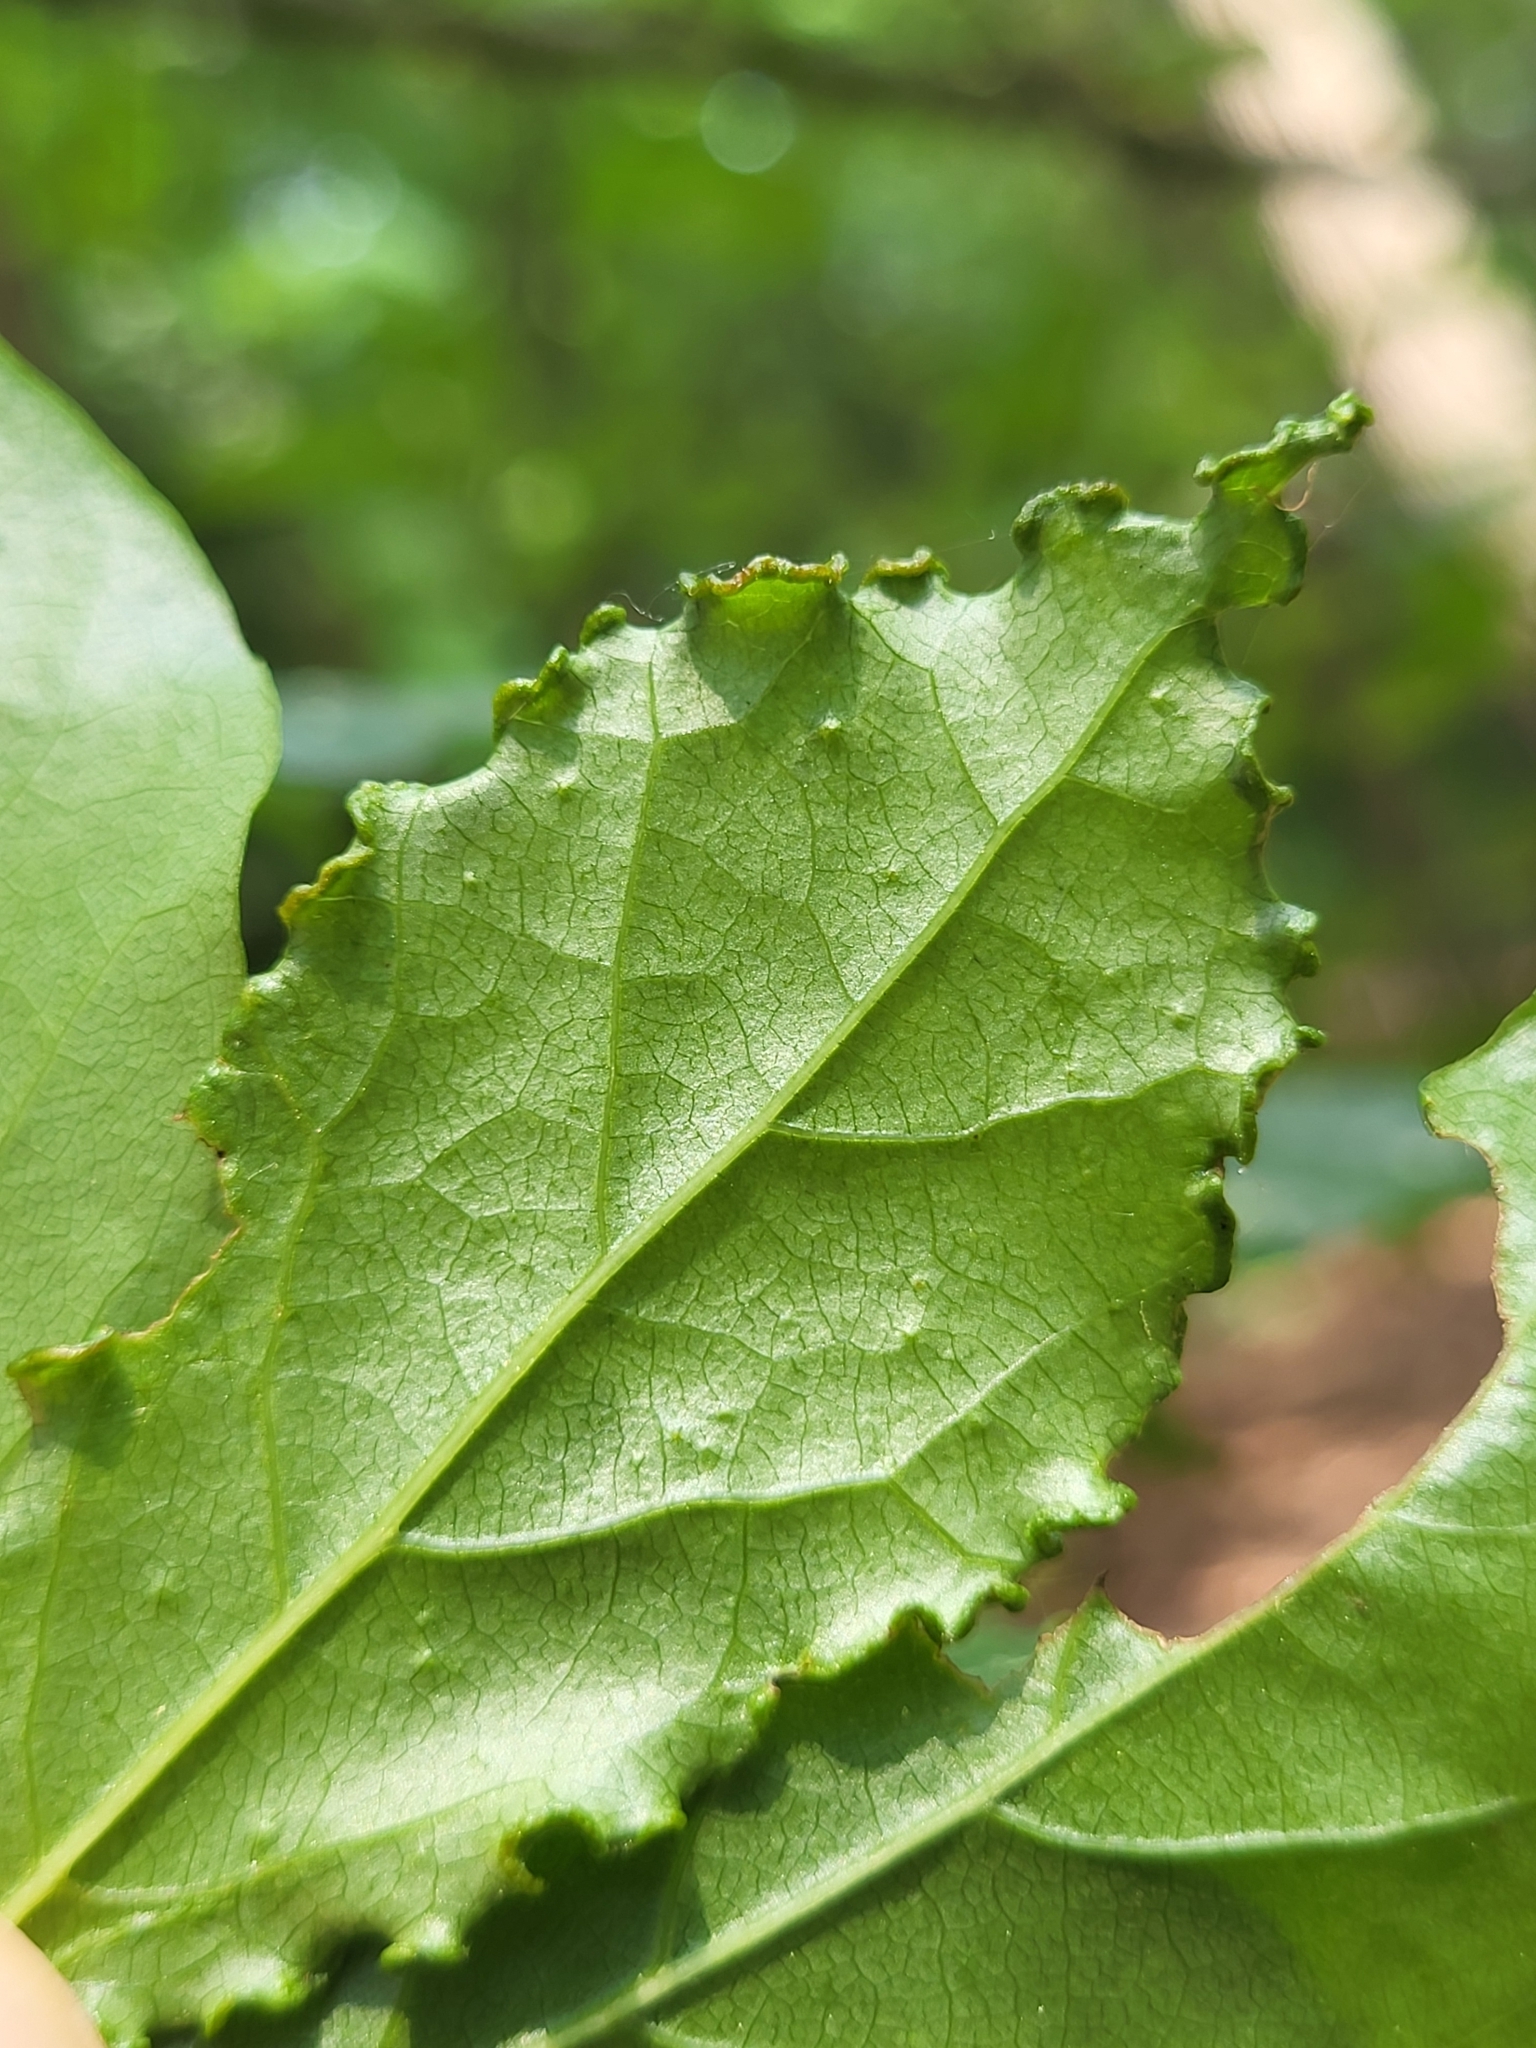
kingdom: Animalia
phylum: Arthropoda
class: Arachnida
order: Trombidiformes
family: Eriophyidae
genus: Aceria
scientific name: Aceria
